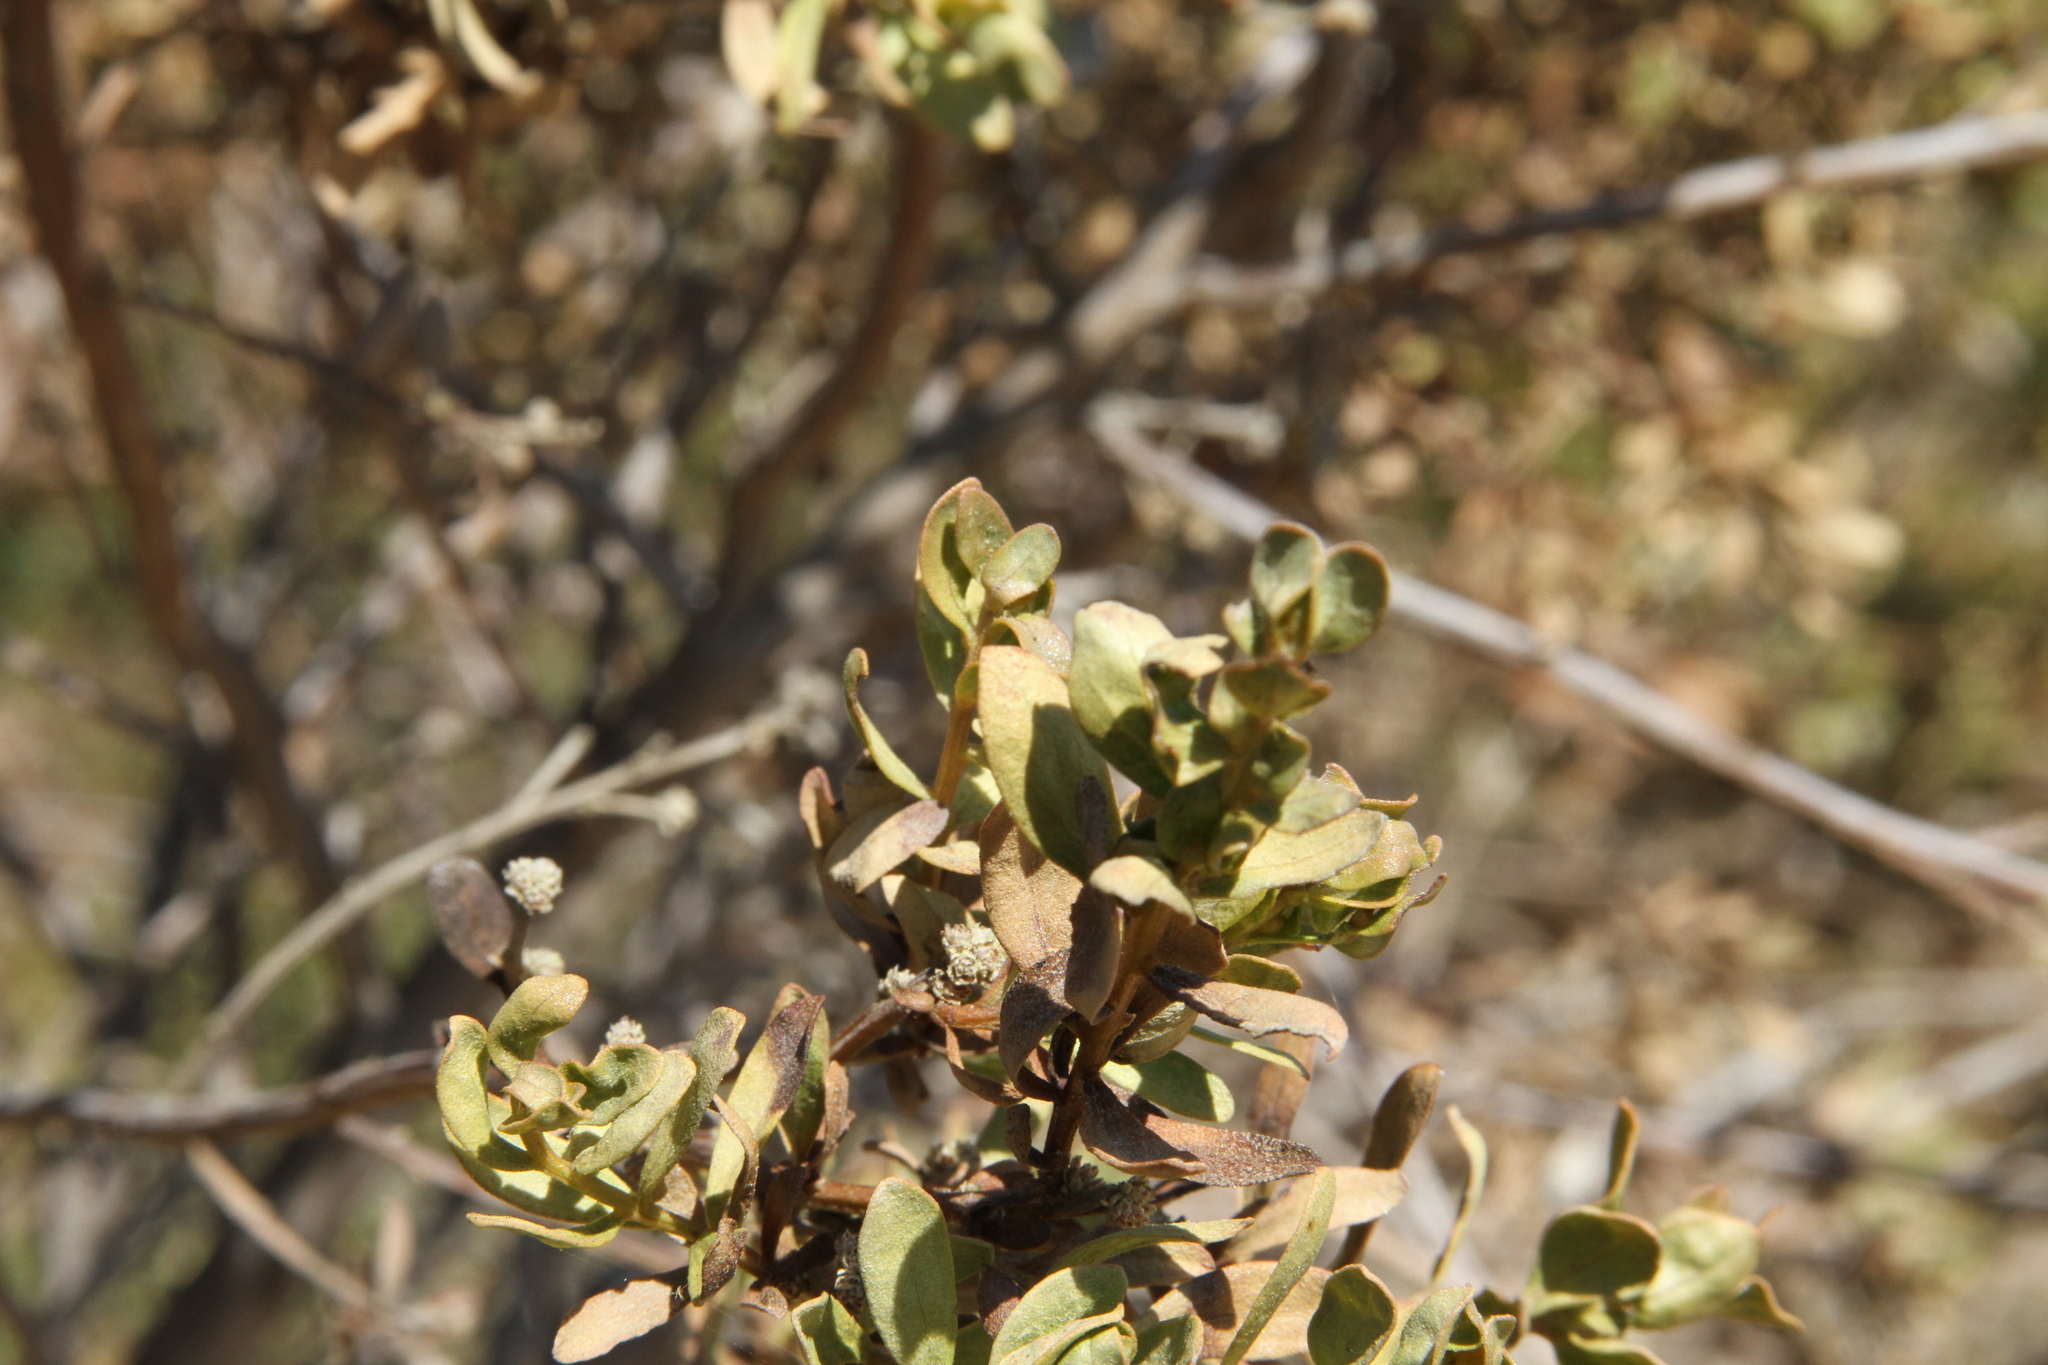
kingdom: Plantae
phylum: Tracheophyta
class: Magnoliopsida
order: Asterales
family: Asteraceae
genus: Baccharis
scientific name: Baccharis pilularis
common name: Coyotebrush
